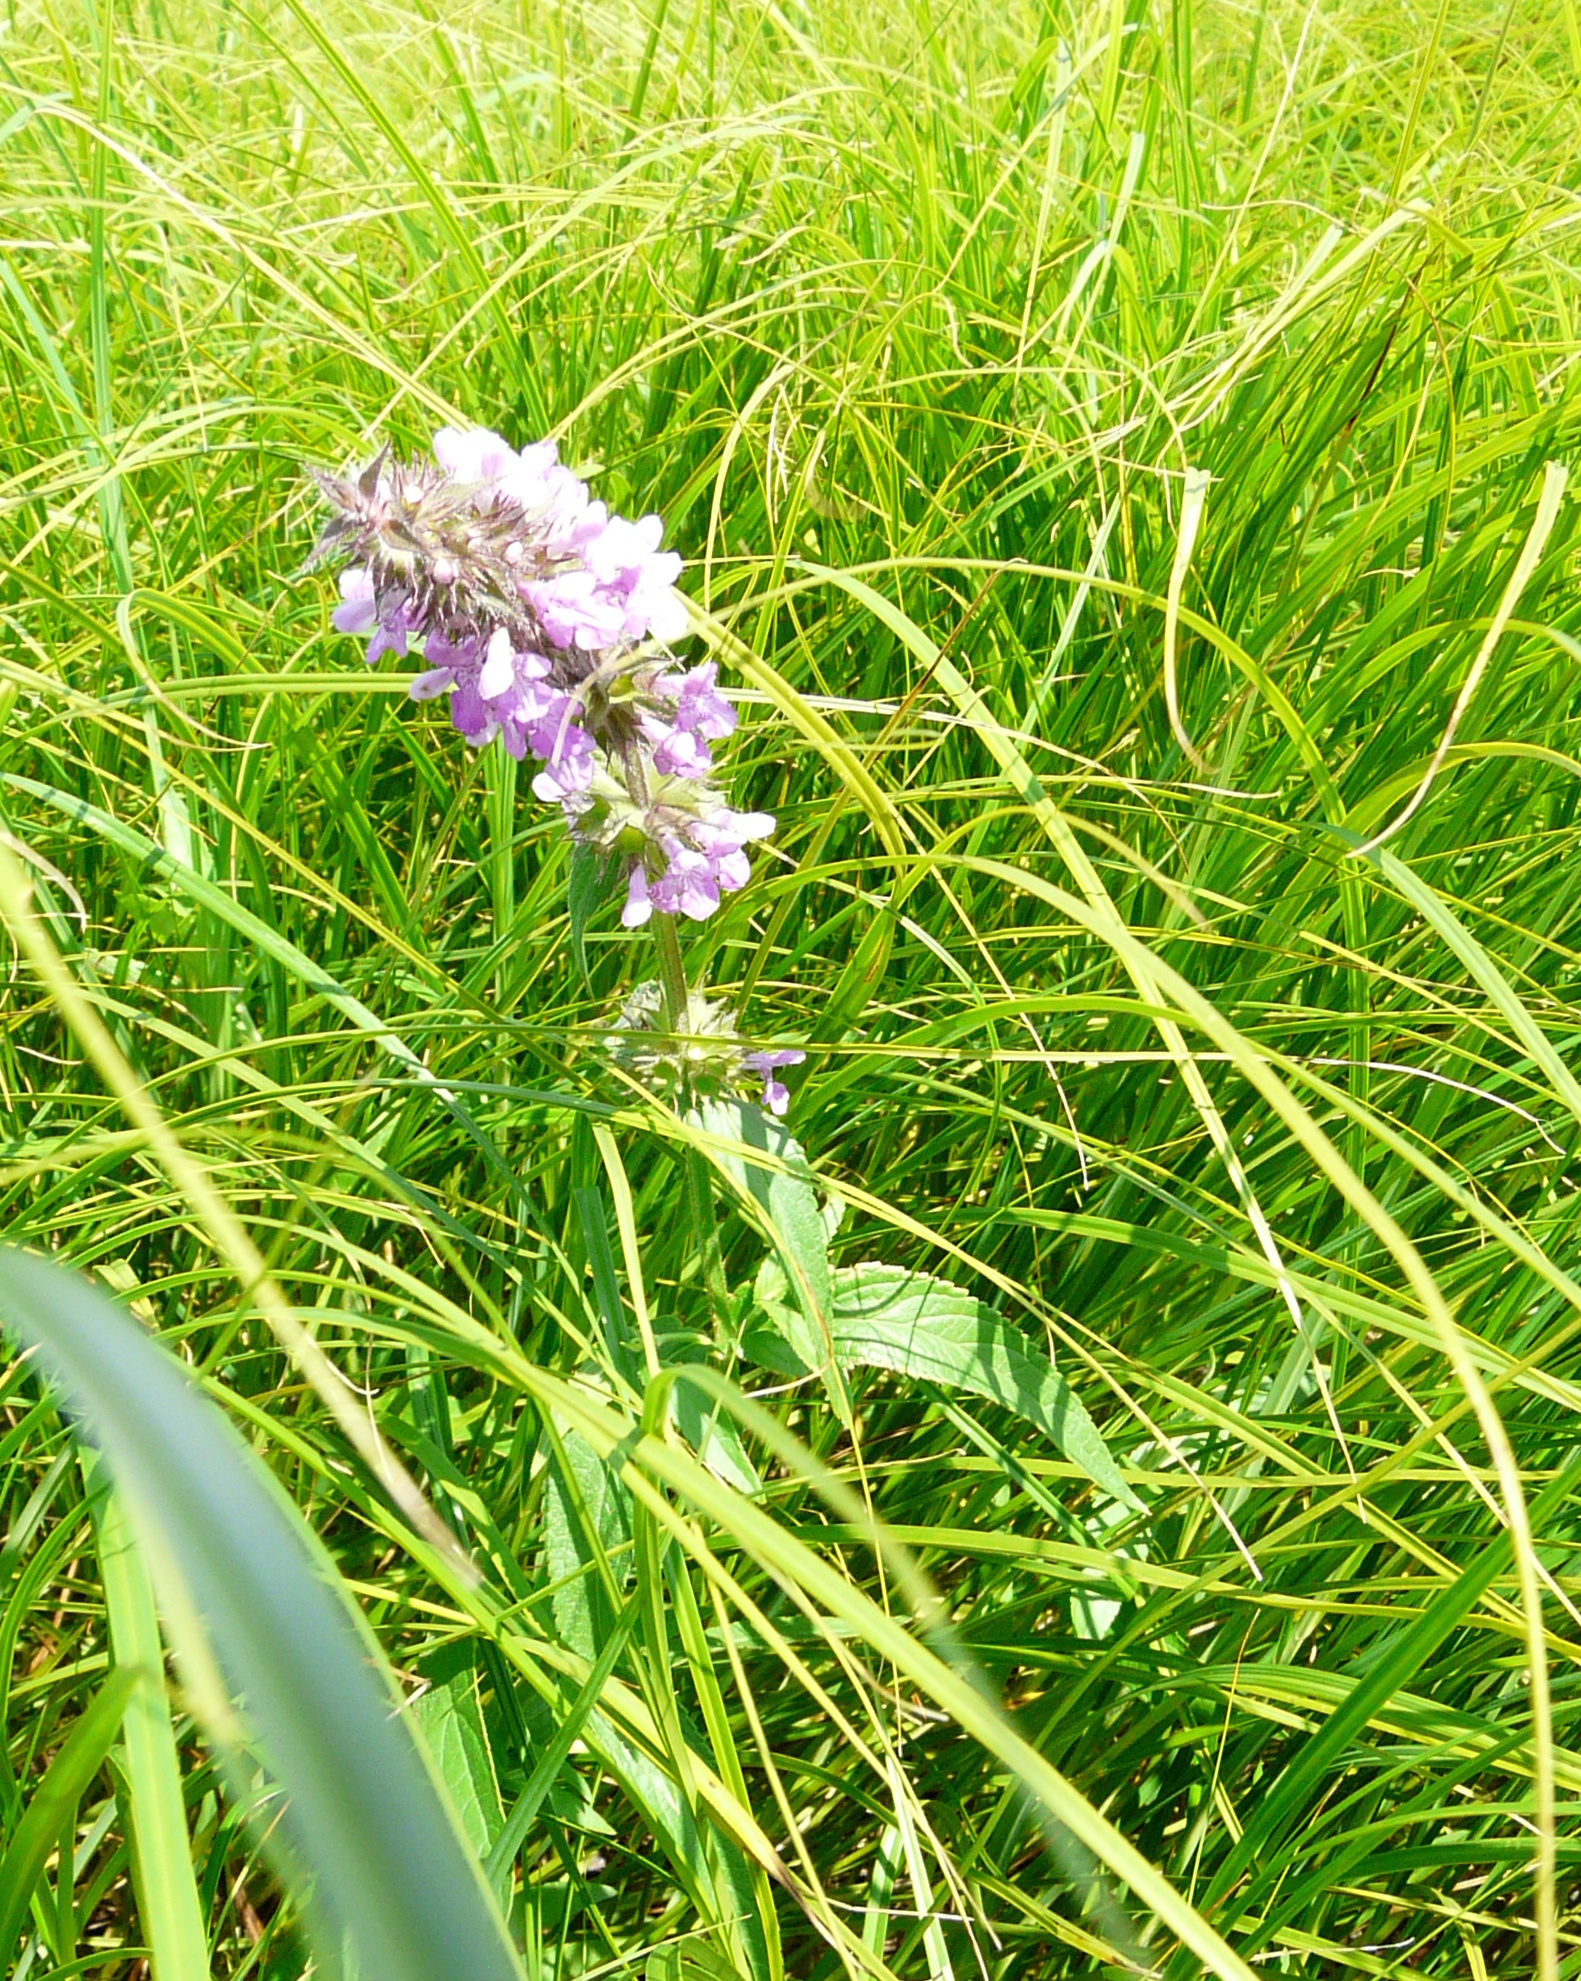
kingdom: Plantae
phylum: Tracheophyta
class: Magnoliopsida
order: Lamiales
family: Lamiaceae
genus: Stachys
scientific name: Stachys palustris
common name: Marsh woundwort
